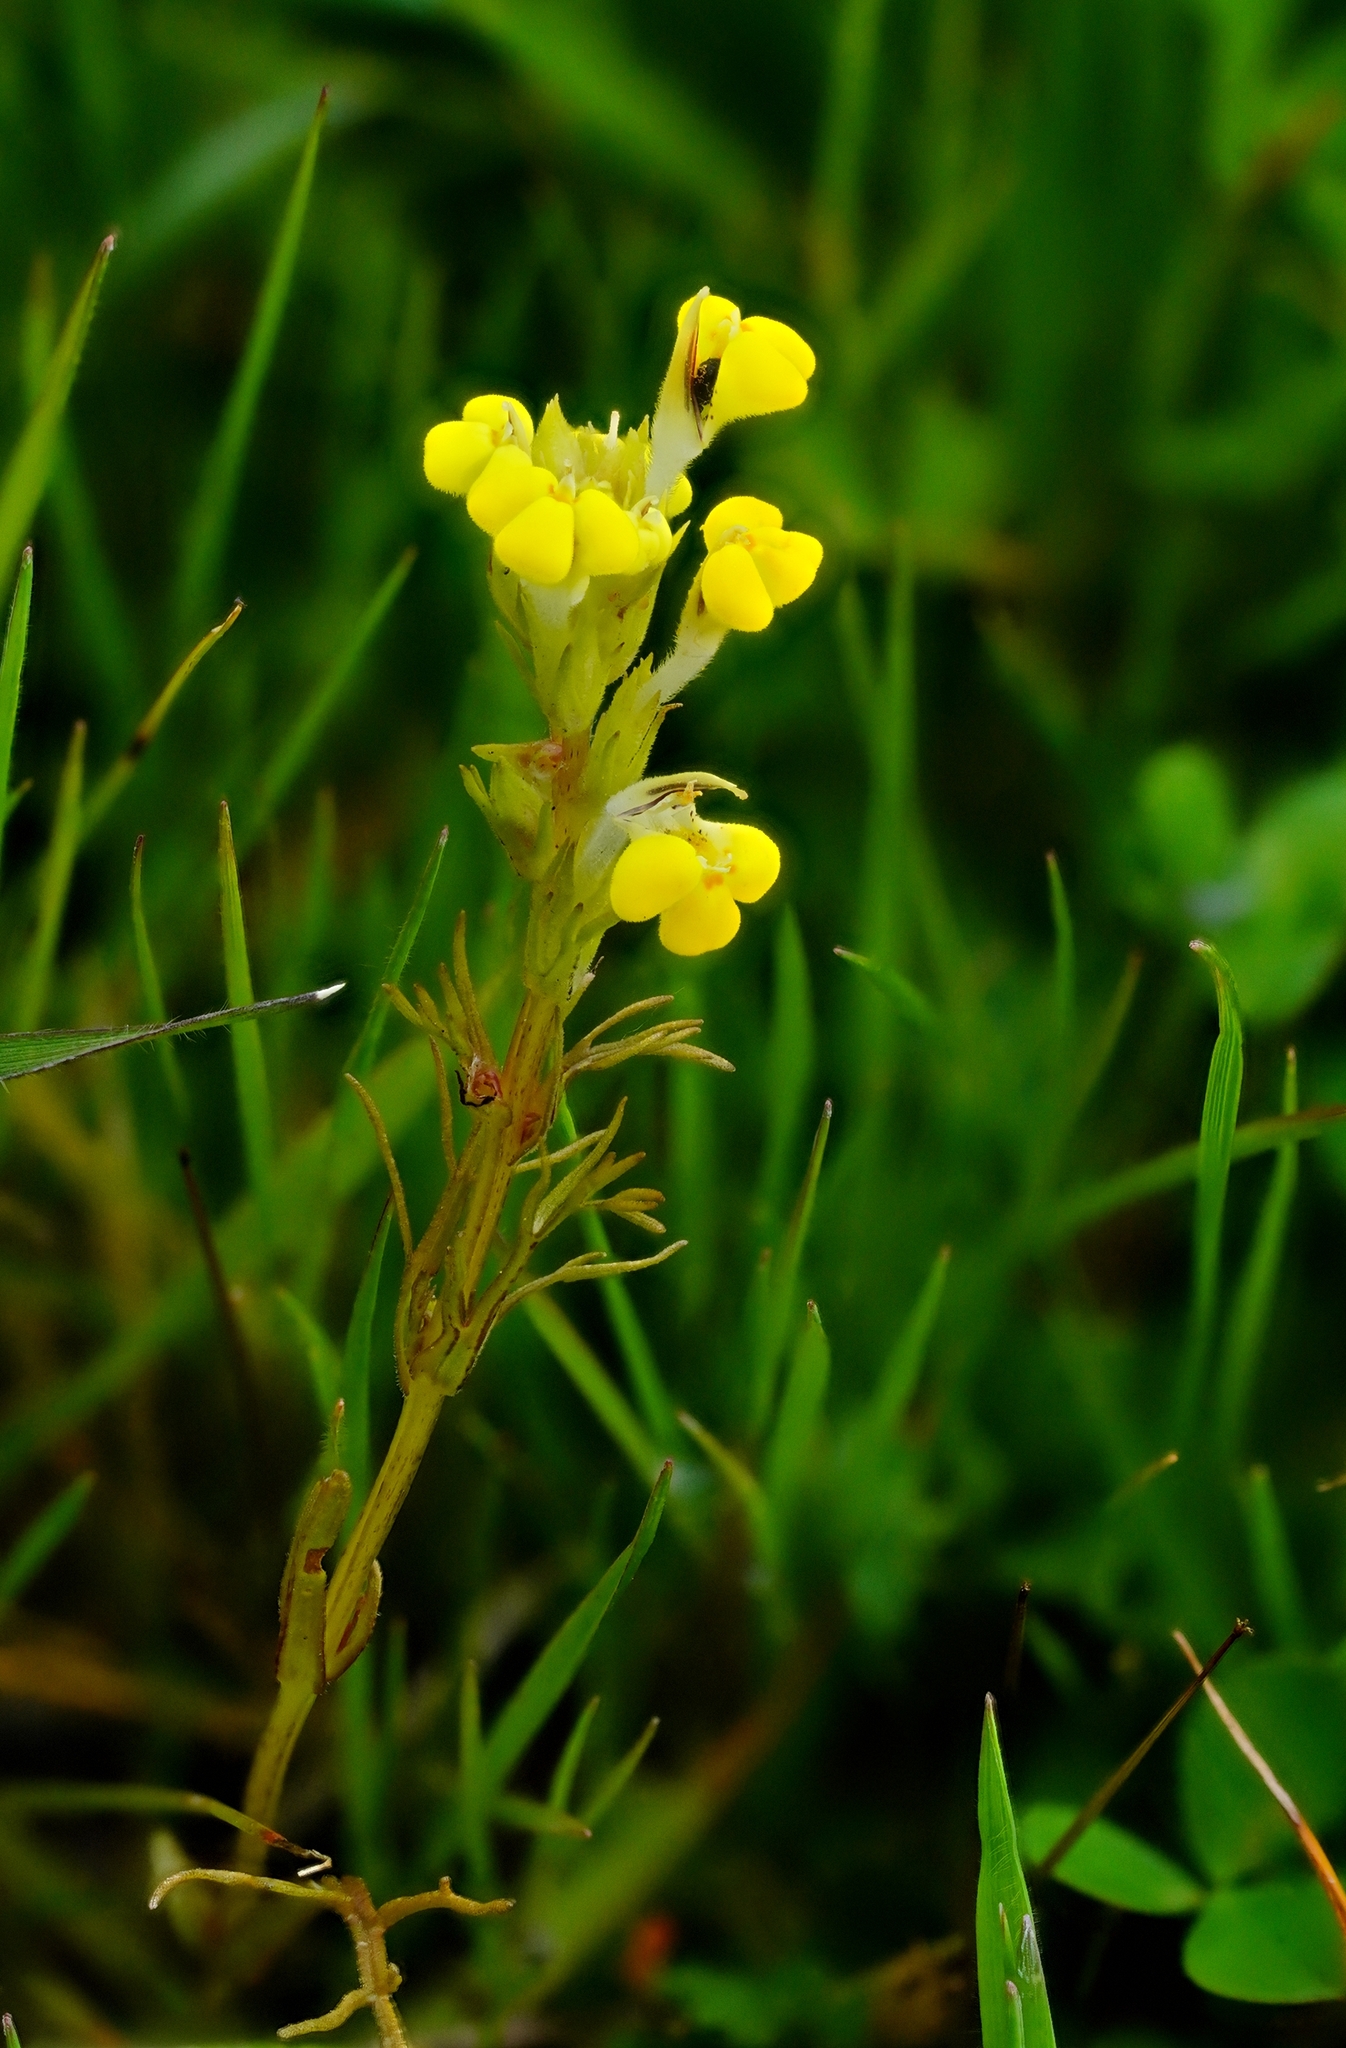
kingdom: Plantae
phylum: Tracheophyta
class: Magnoliopsida
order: Lamiales
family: Orobanchaceae
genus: Triphysaria
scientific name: Triphysaria versicolor
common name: Bearded false owl-clover
